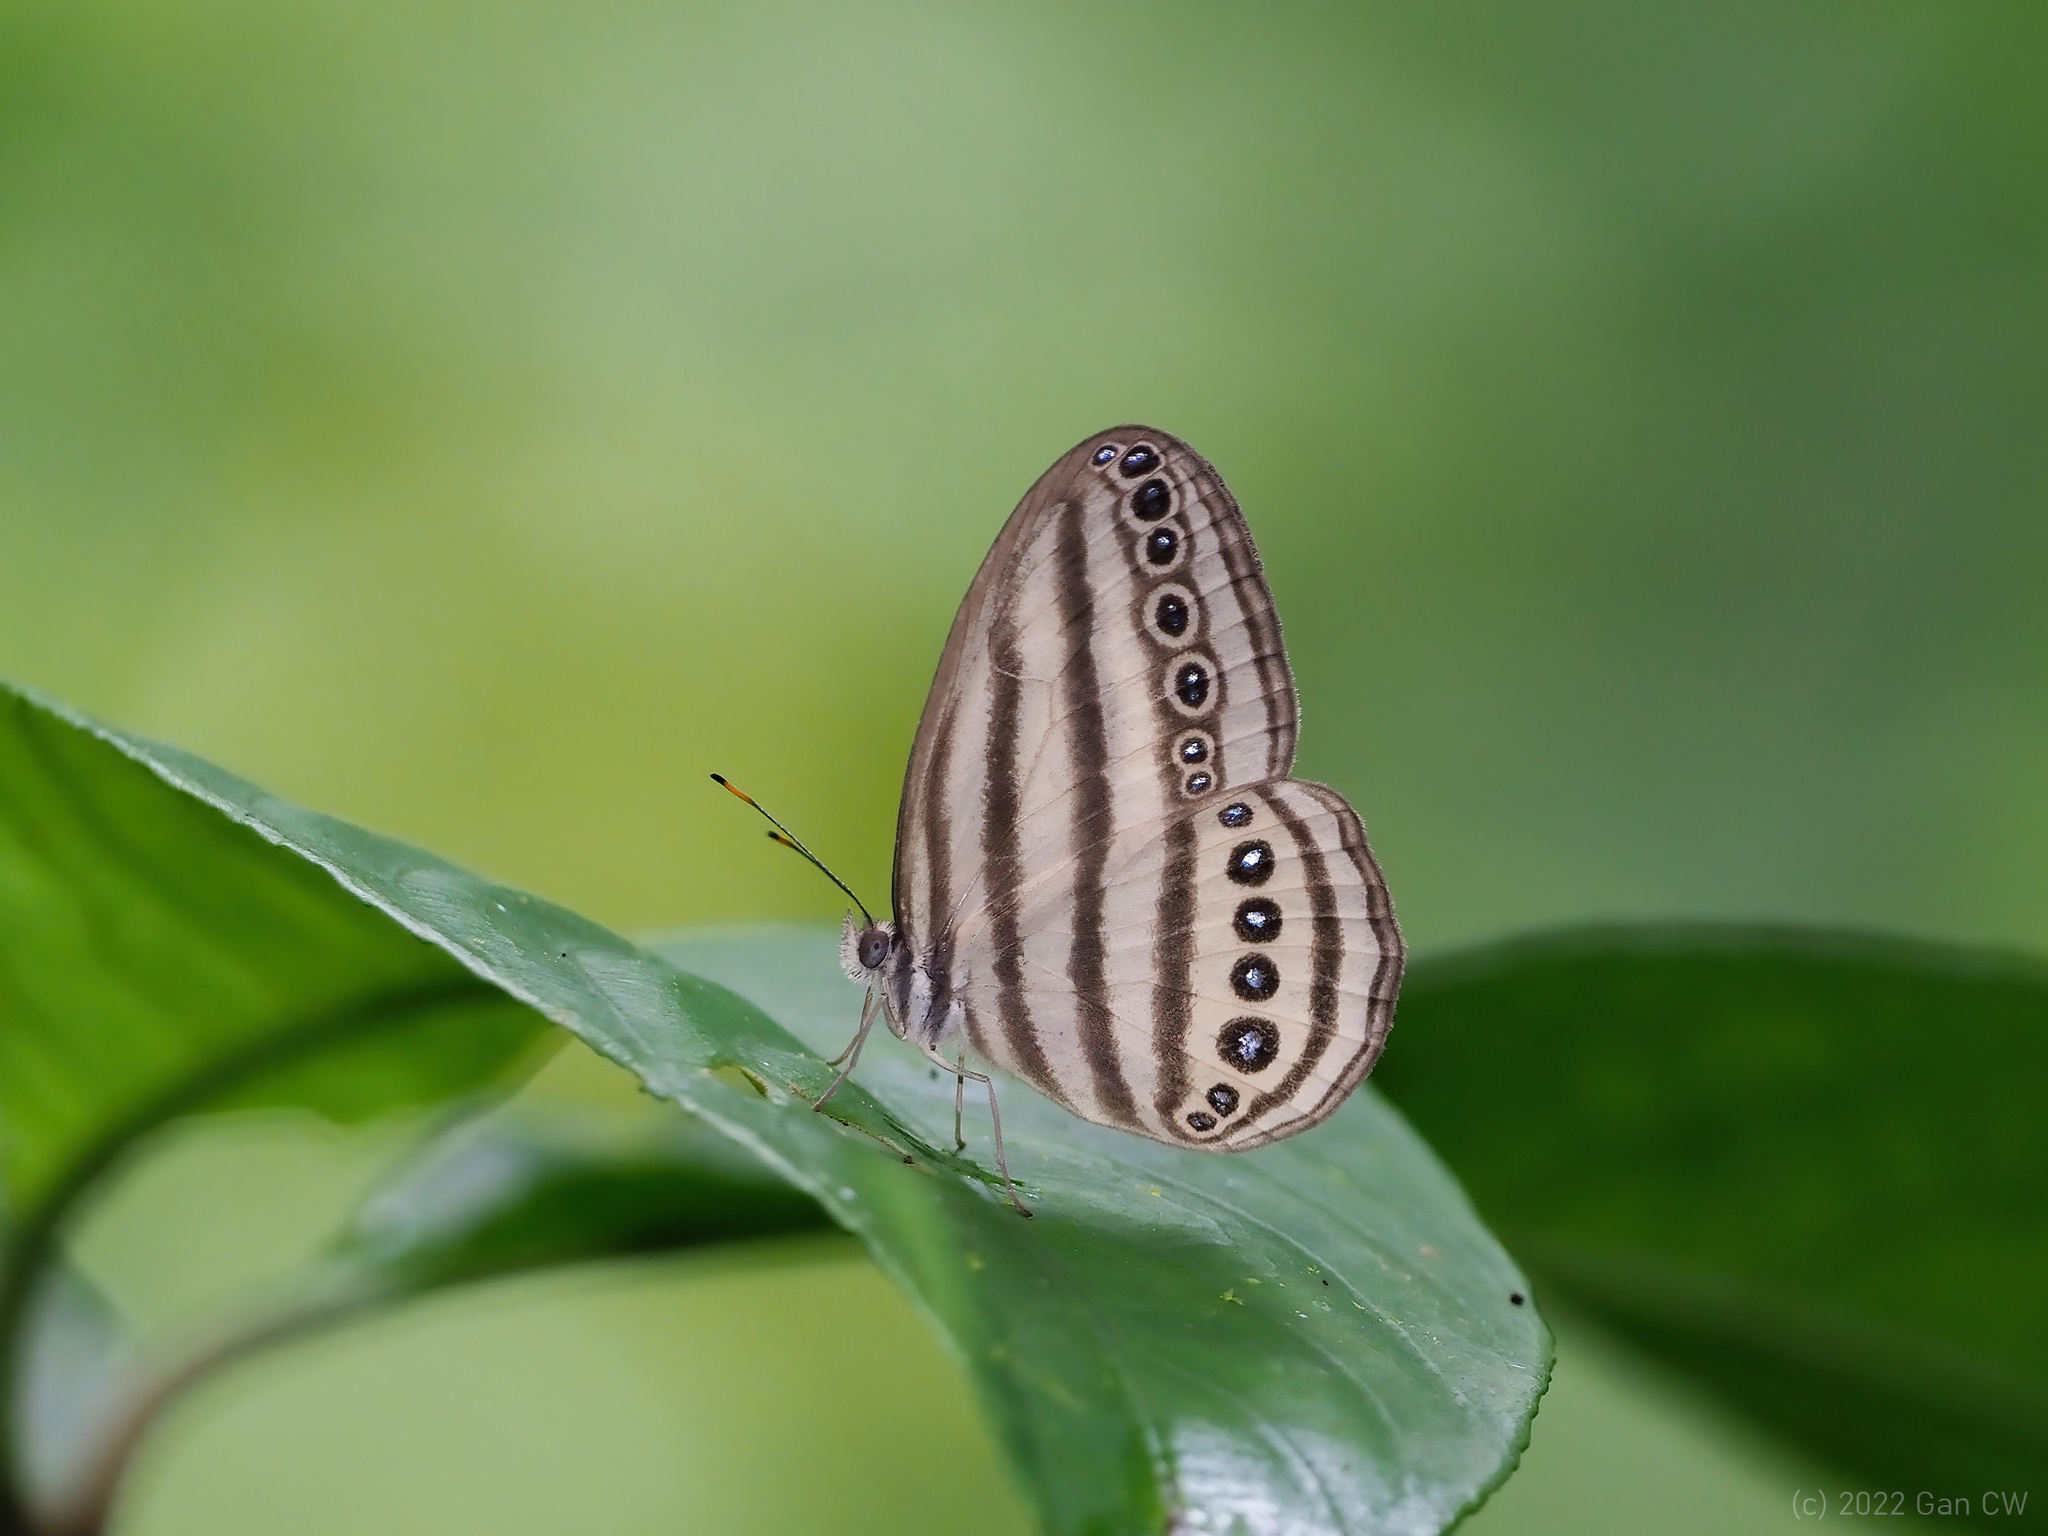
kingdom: Animalia
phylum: Arthropoda
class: Insecta
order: Lepidoptera
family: Nymphalidae
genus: Ragadia
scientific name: Ragadia makuta
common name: Striped ringlet
